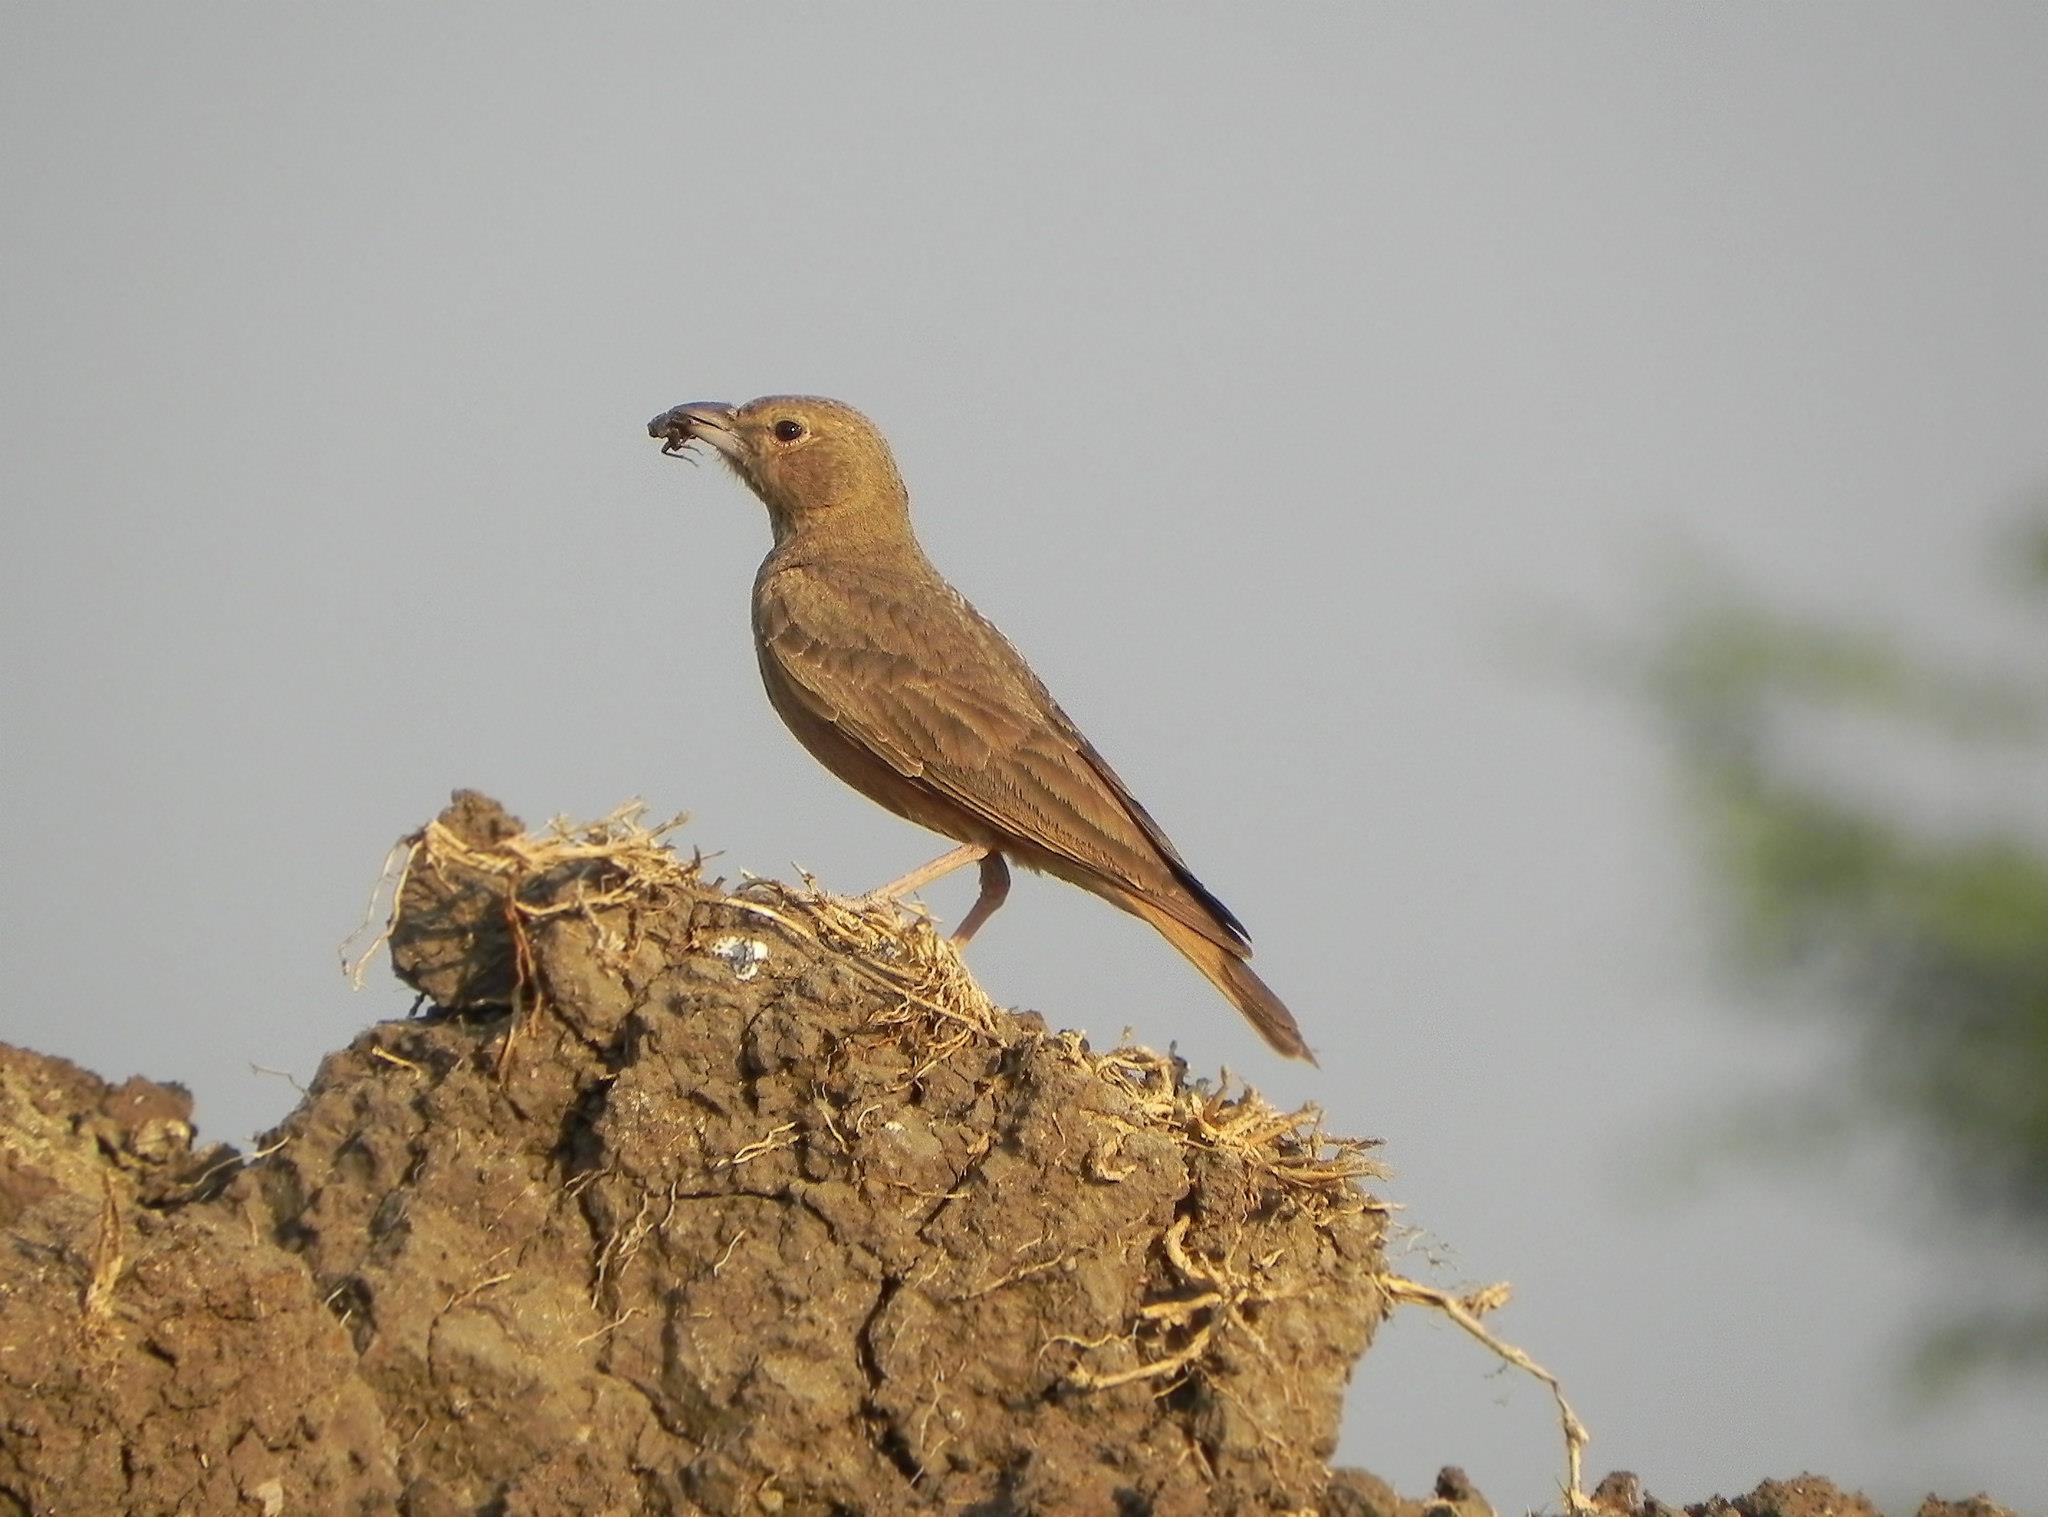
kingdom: Animalia
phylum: Chordata
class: Aves
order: Passeriformes
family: Alaudidae
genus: Ammomanes
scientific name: Ammomanes phoenicura
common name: Rufous-tailed lark
